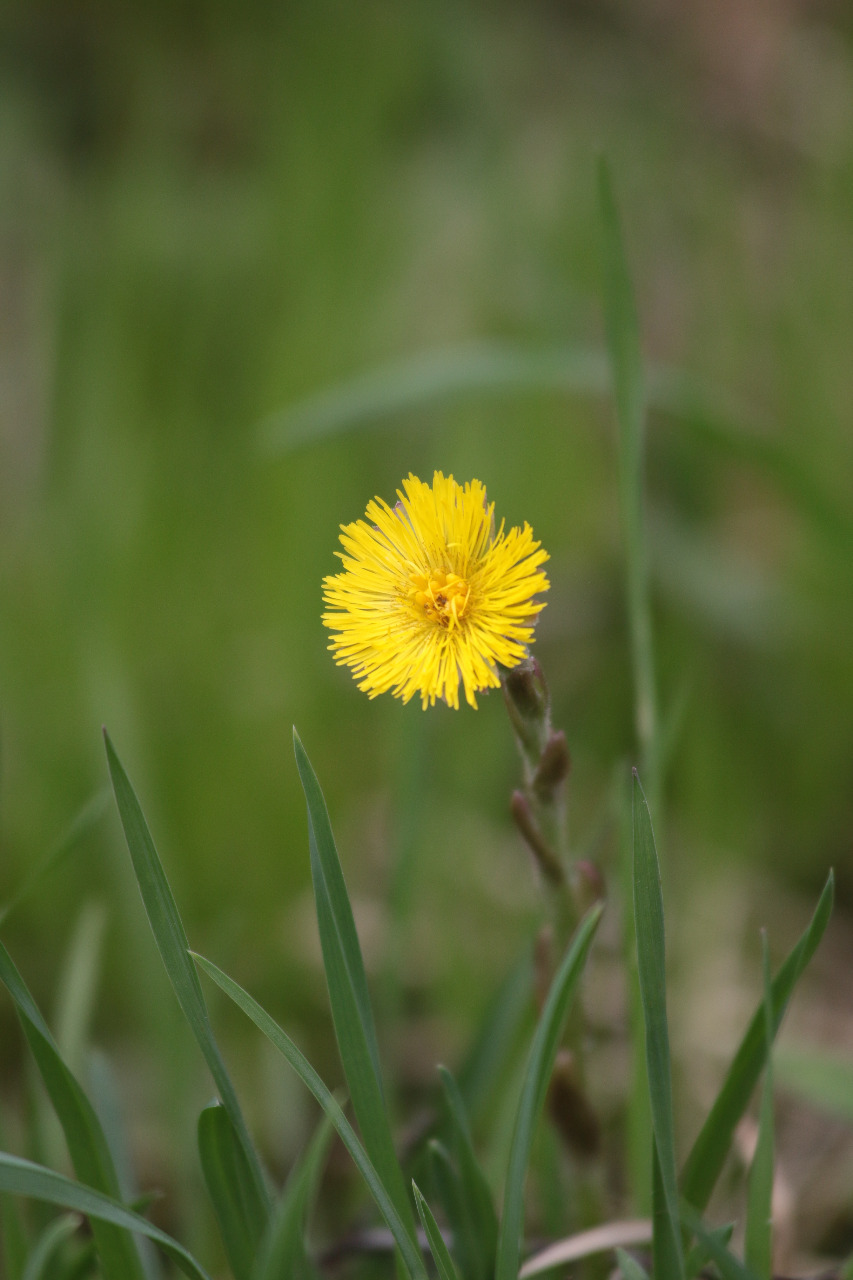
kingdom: Plantae
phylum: Tracheophyta
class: Magnoliopsida
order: Asterales
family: Asteraceae
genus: Tussilago
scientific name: Tussilago farfara
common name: Coltsfoot
